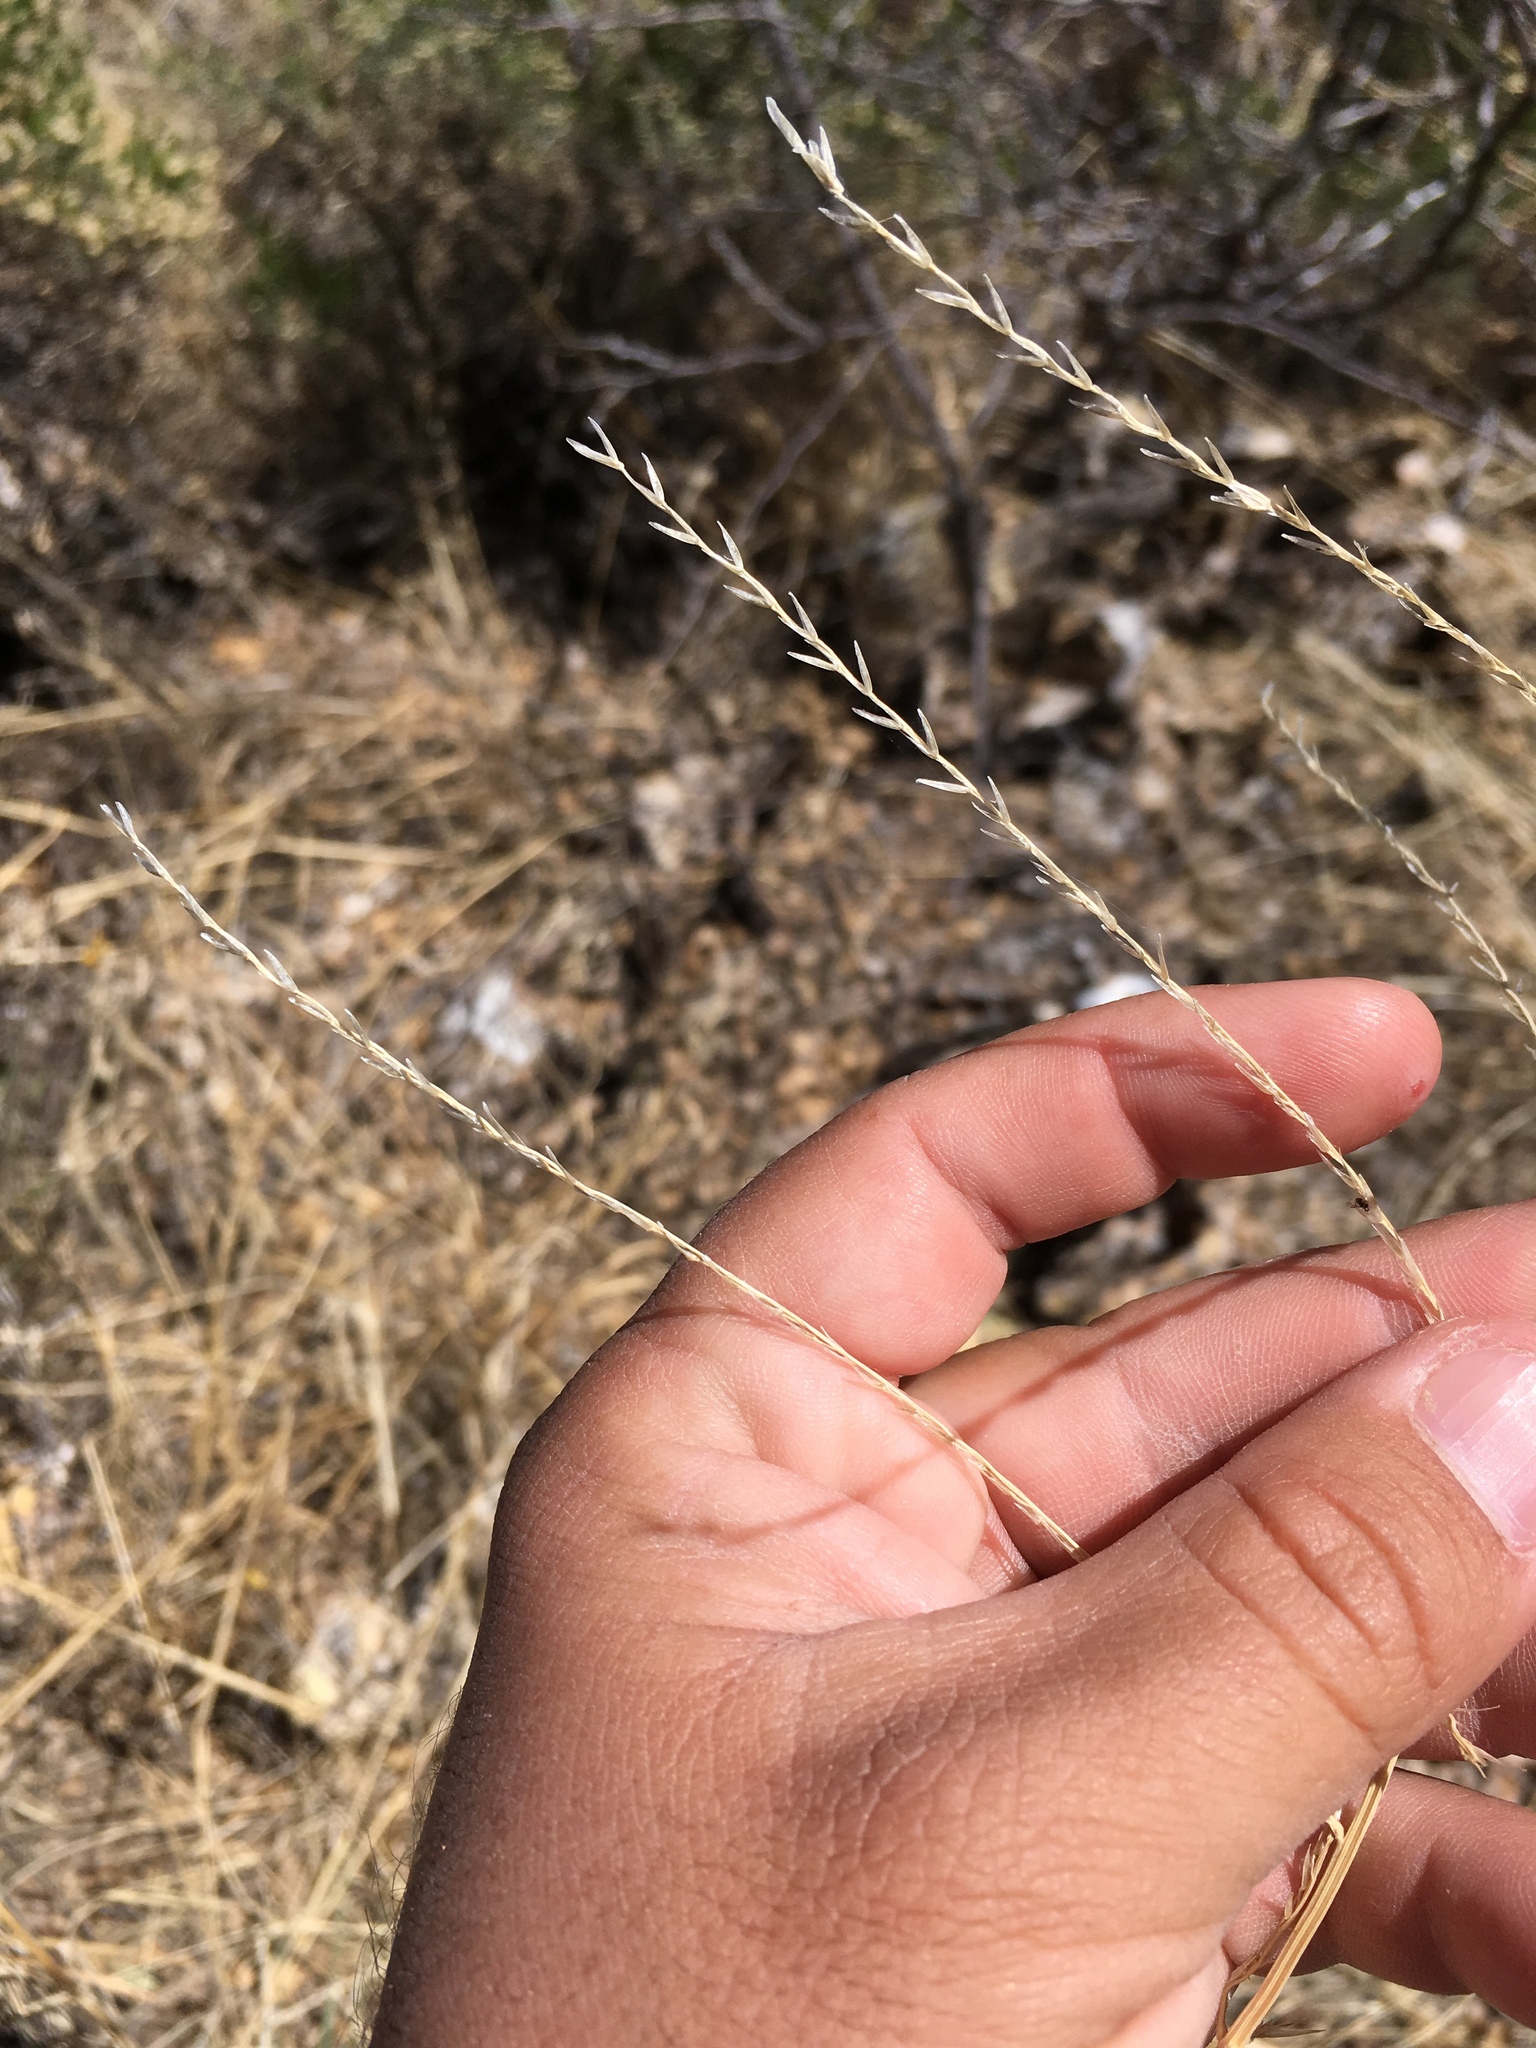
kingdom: Plantae
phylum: Tracheophyta
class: Liliopsida
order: Poales
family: Poaceae
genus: Disakisperma
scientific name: Disakisperma dubium
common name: Green sprangletop
